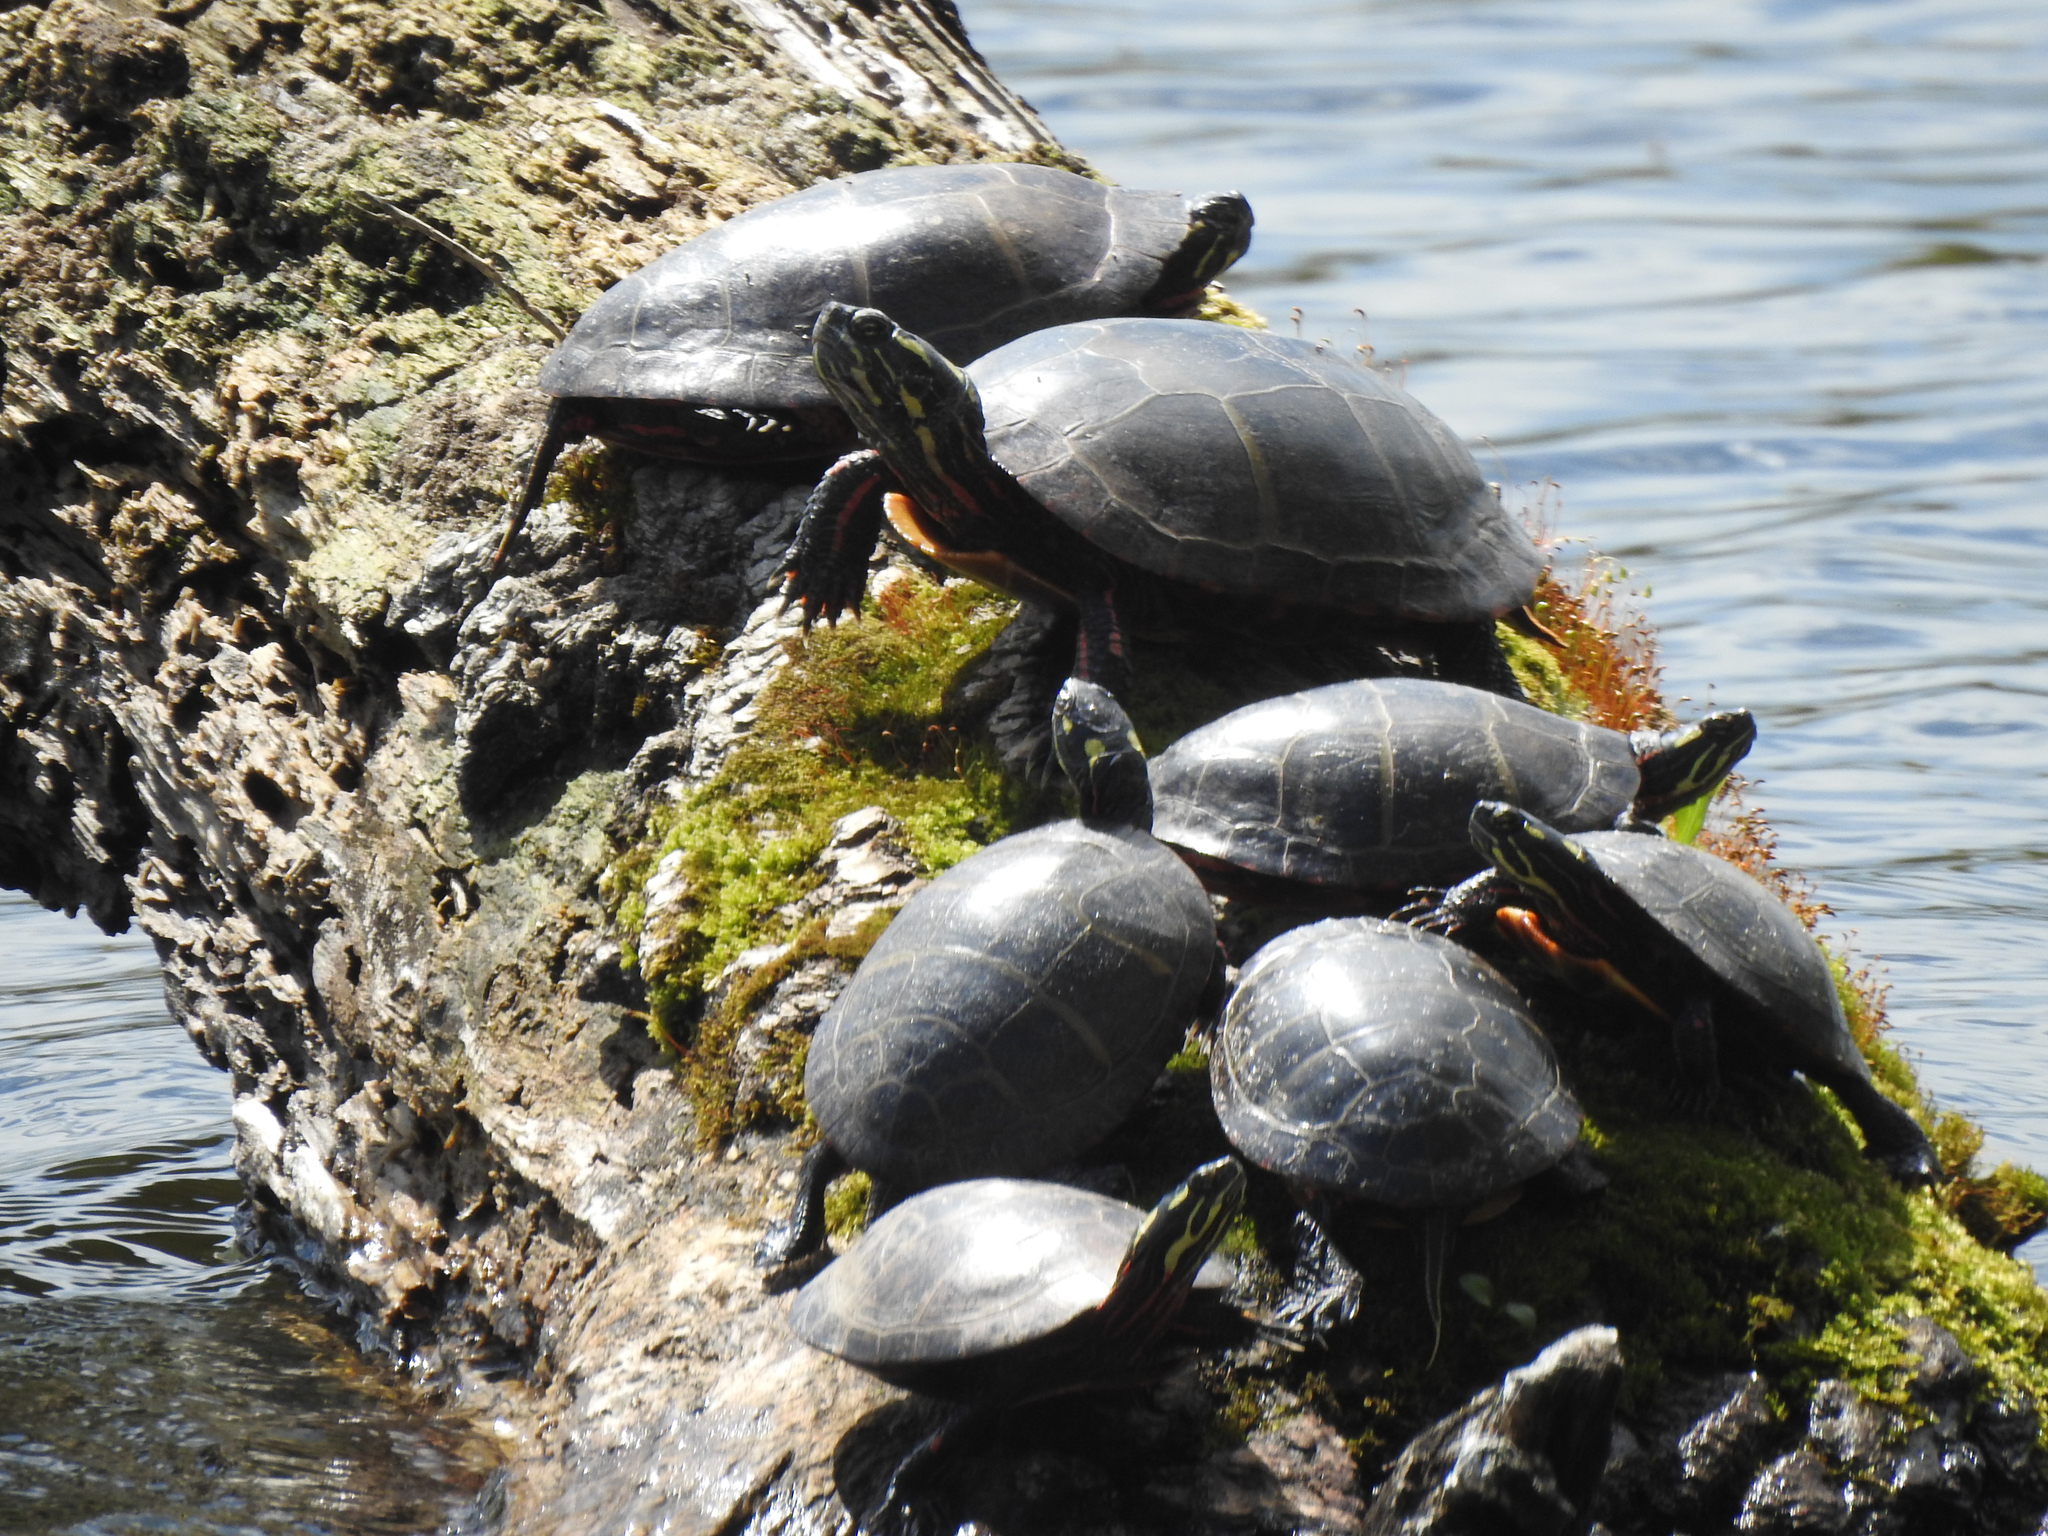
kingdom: Animalia
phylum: Chordata
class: Testudines
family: Emydidae
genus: Chrysemys
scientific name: Chrysemys picta
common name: Painted turtle
